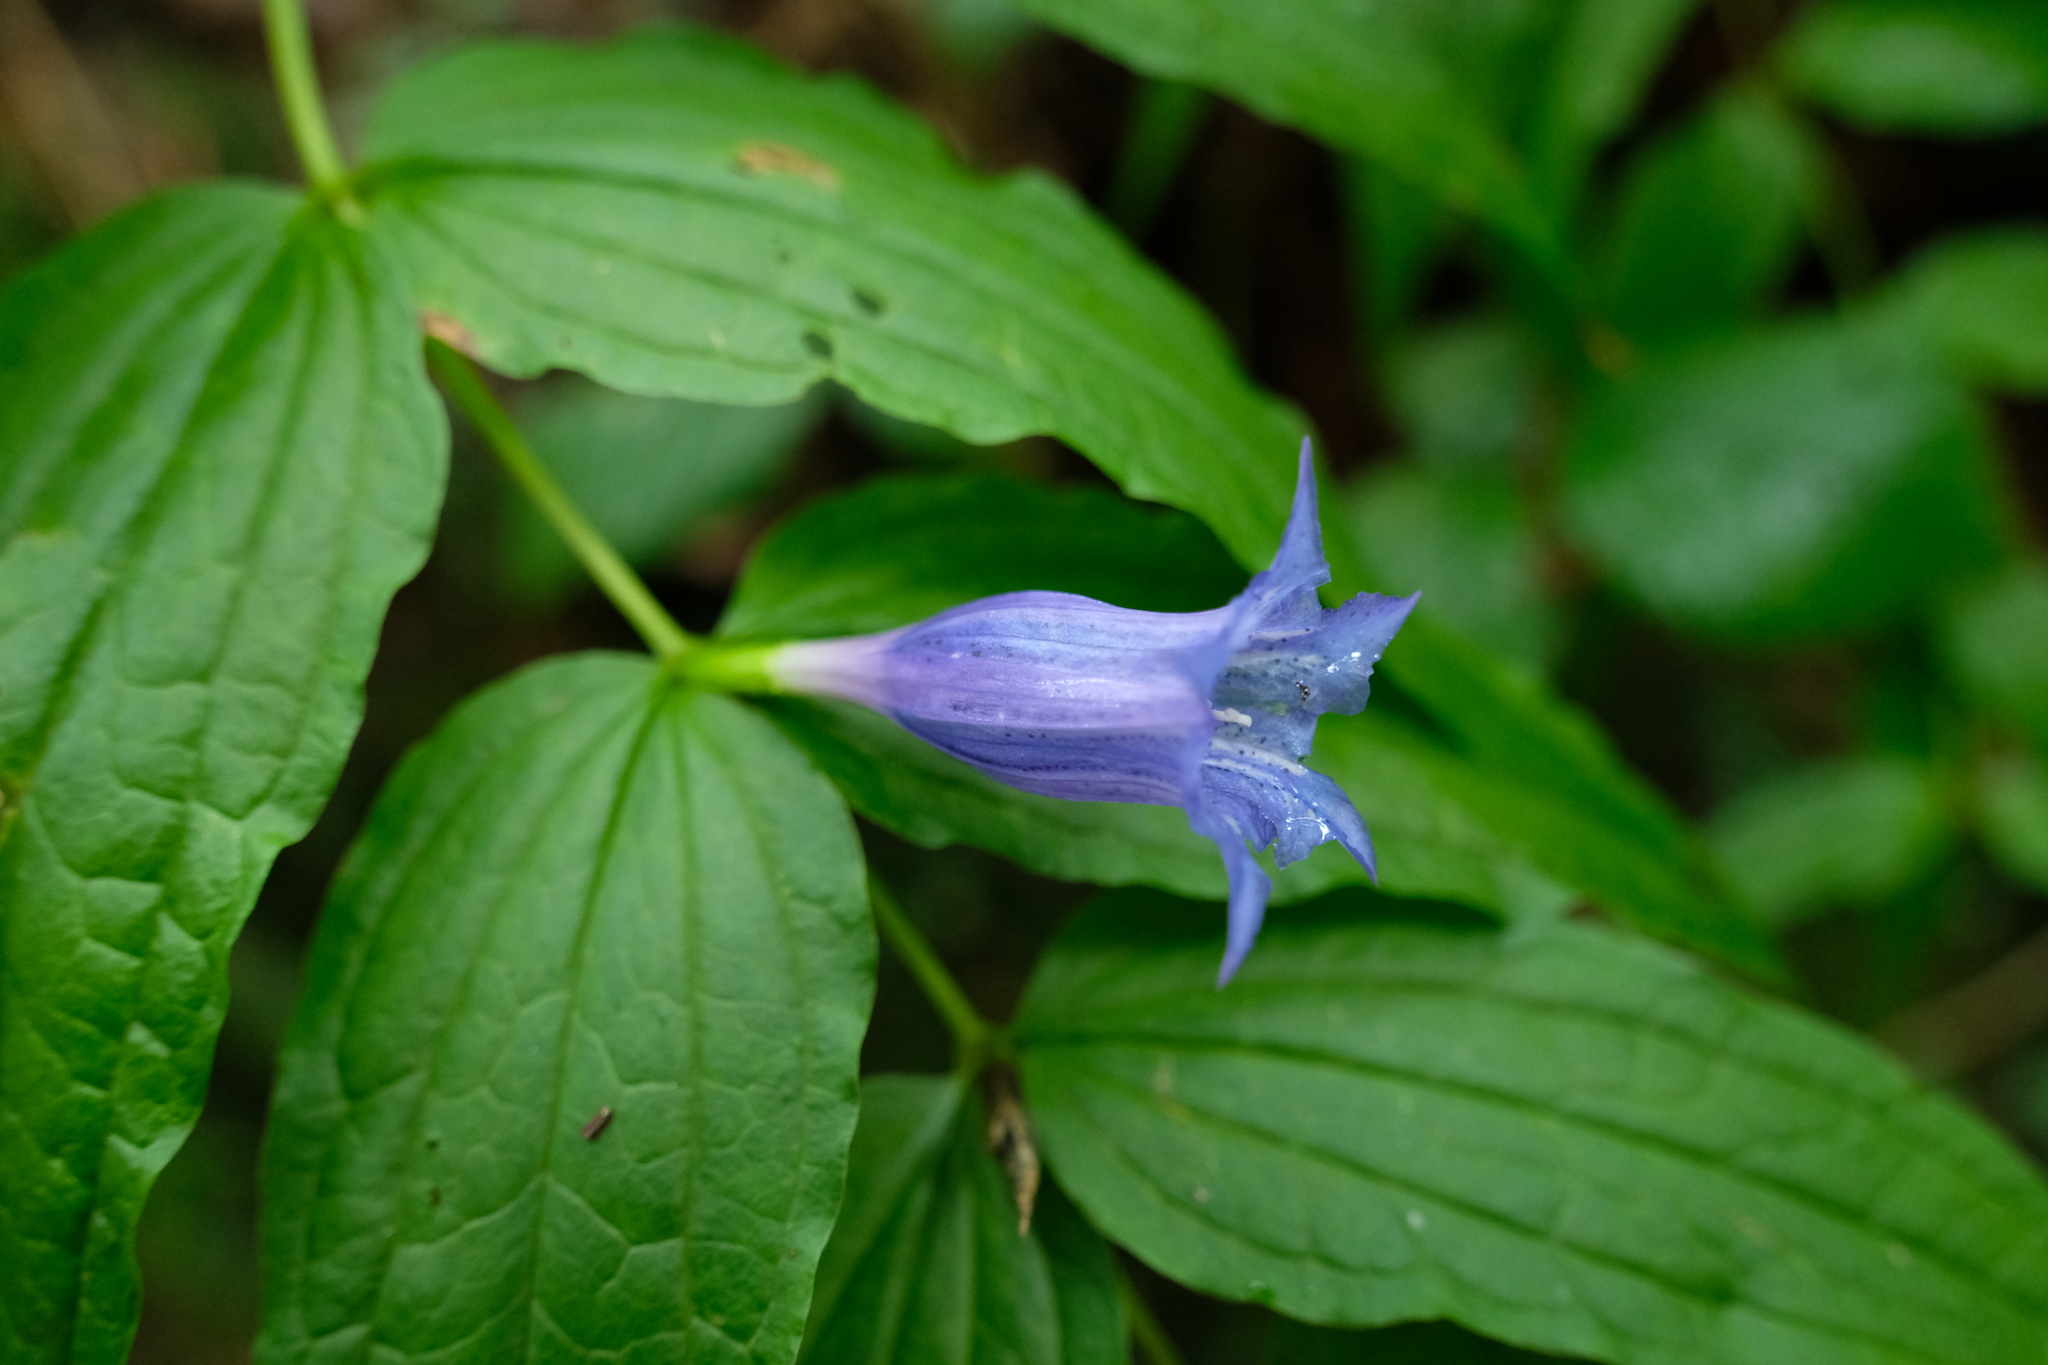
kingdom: Plantae
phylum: Tracheophyta
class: Magnoliopsida
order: Gentianales
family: Gentianaceae
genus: Gentiana
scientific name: Gentiana asclepiadea
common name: Willow gentian
